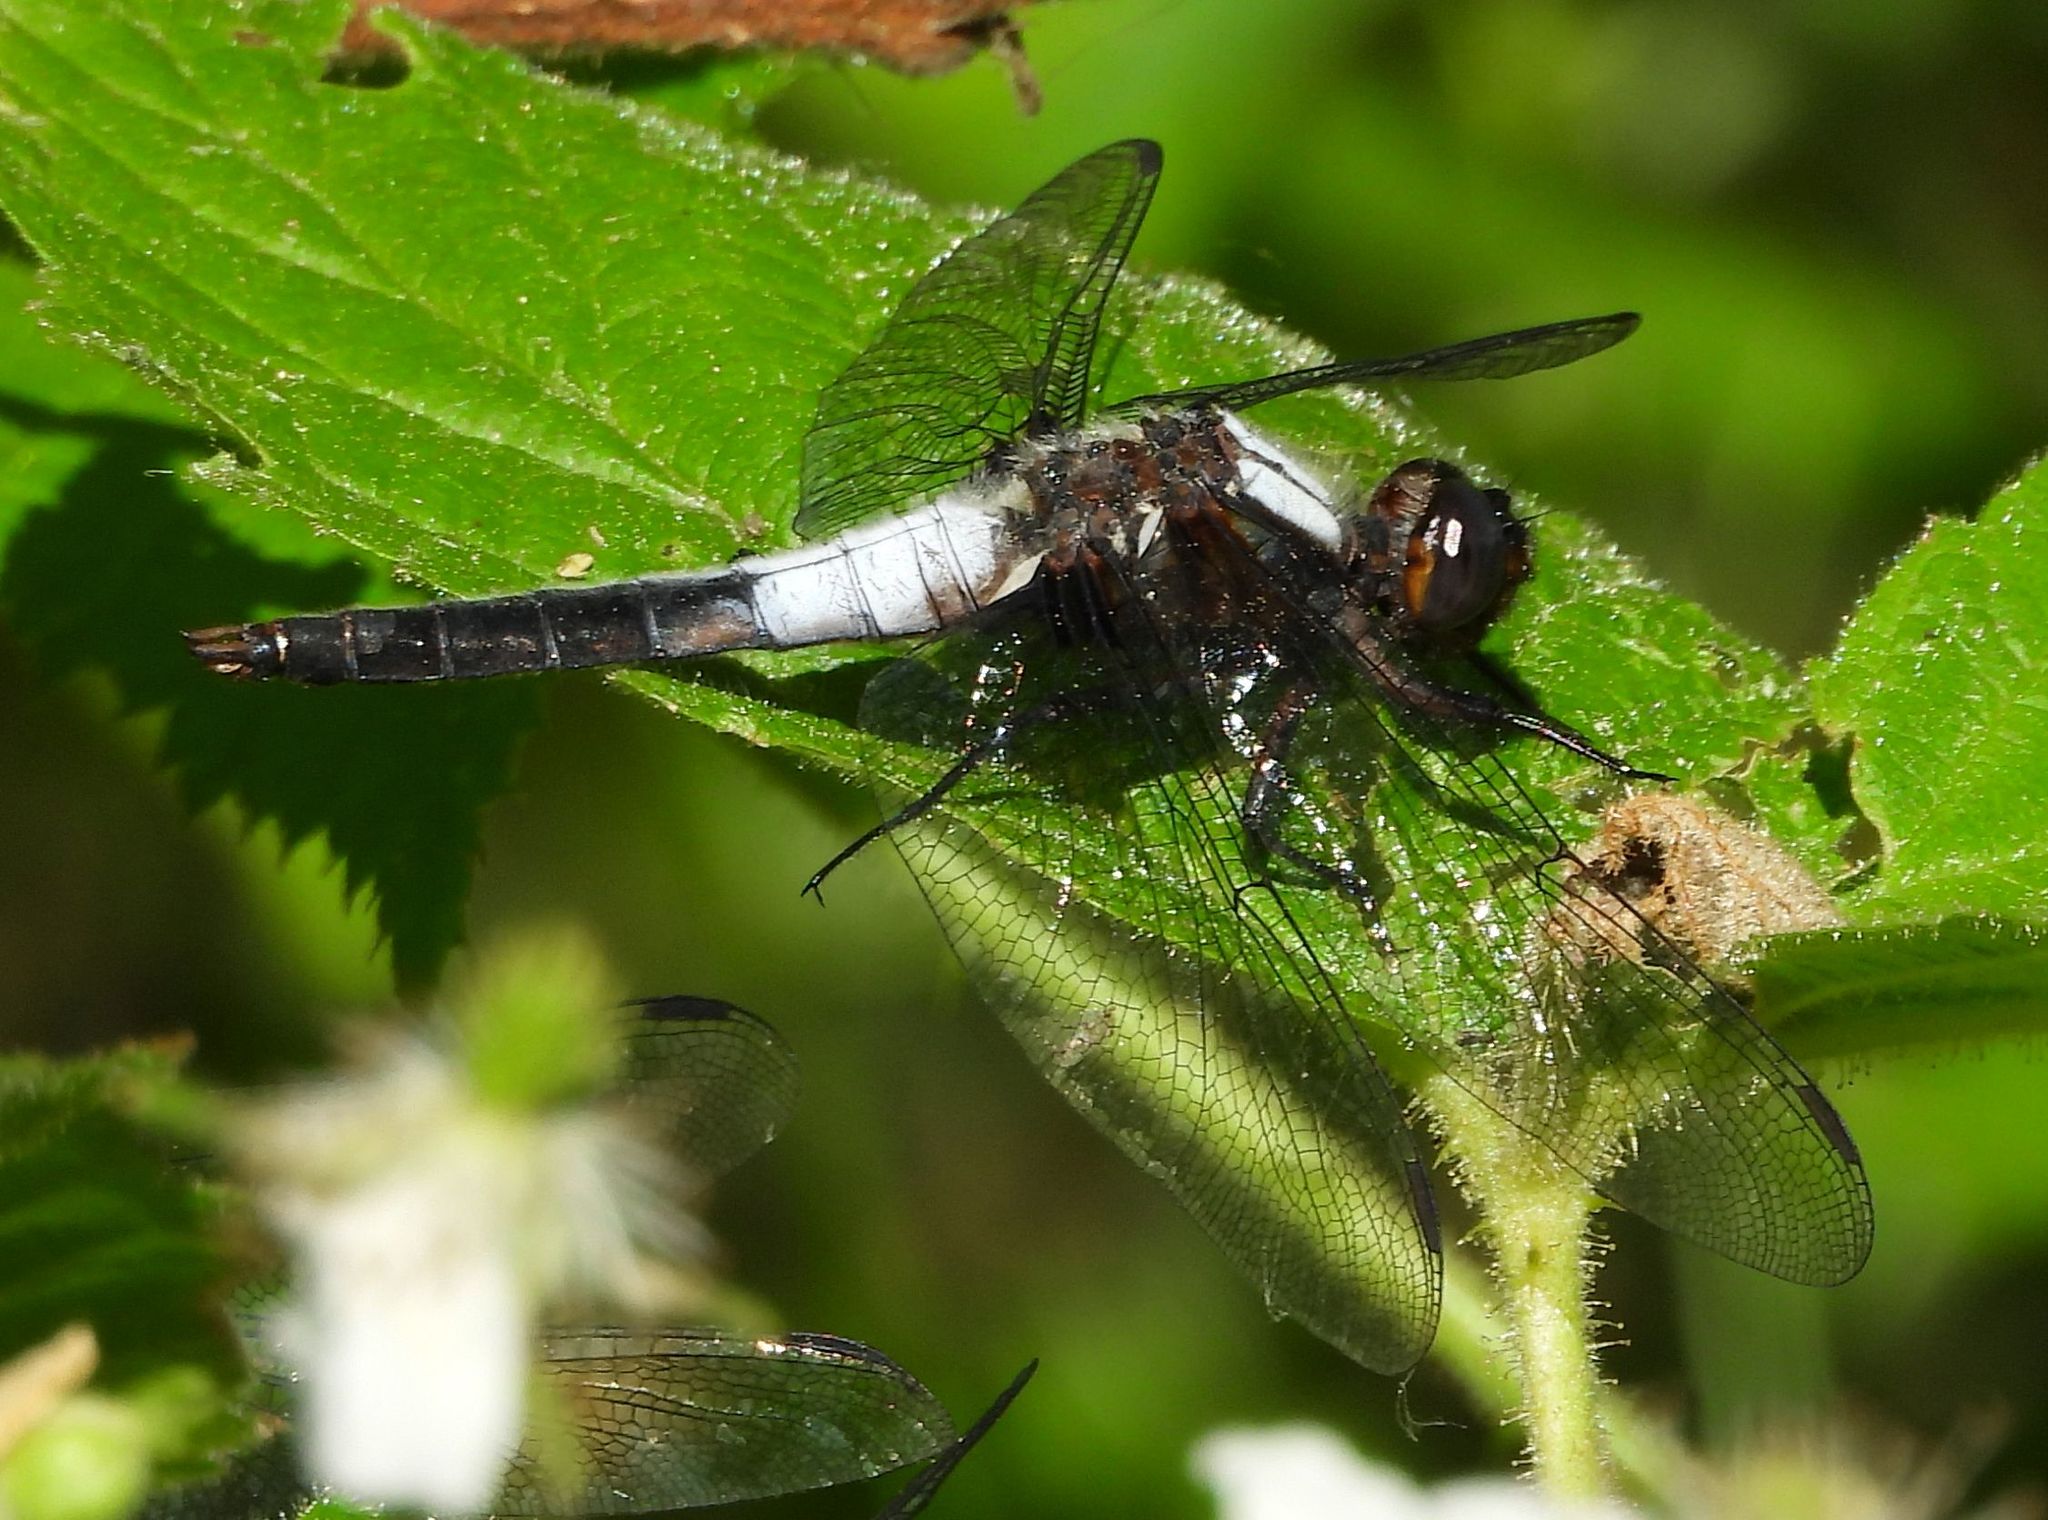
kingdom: Animalia
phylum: Arthropoda
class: Insecta
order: Odonata
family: Libellulidae
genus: Ladona
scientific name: Ladona julia
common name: Chalk-fronted corporal
